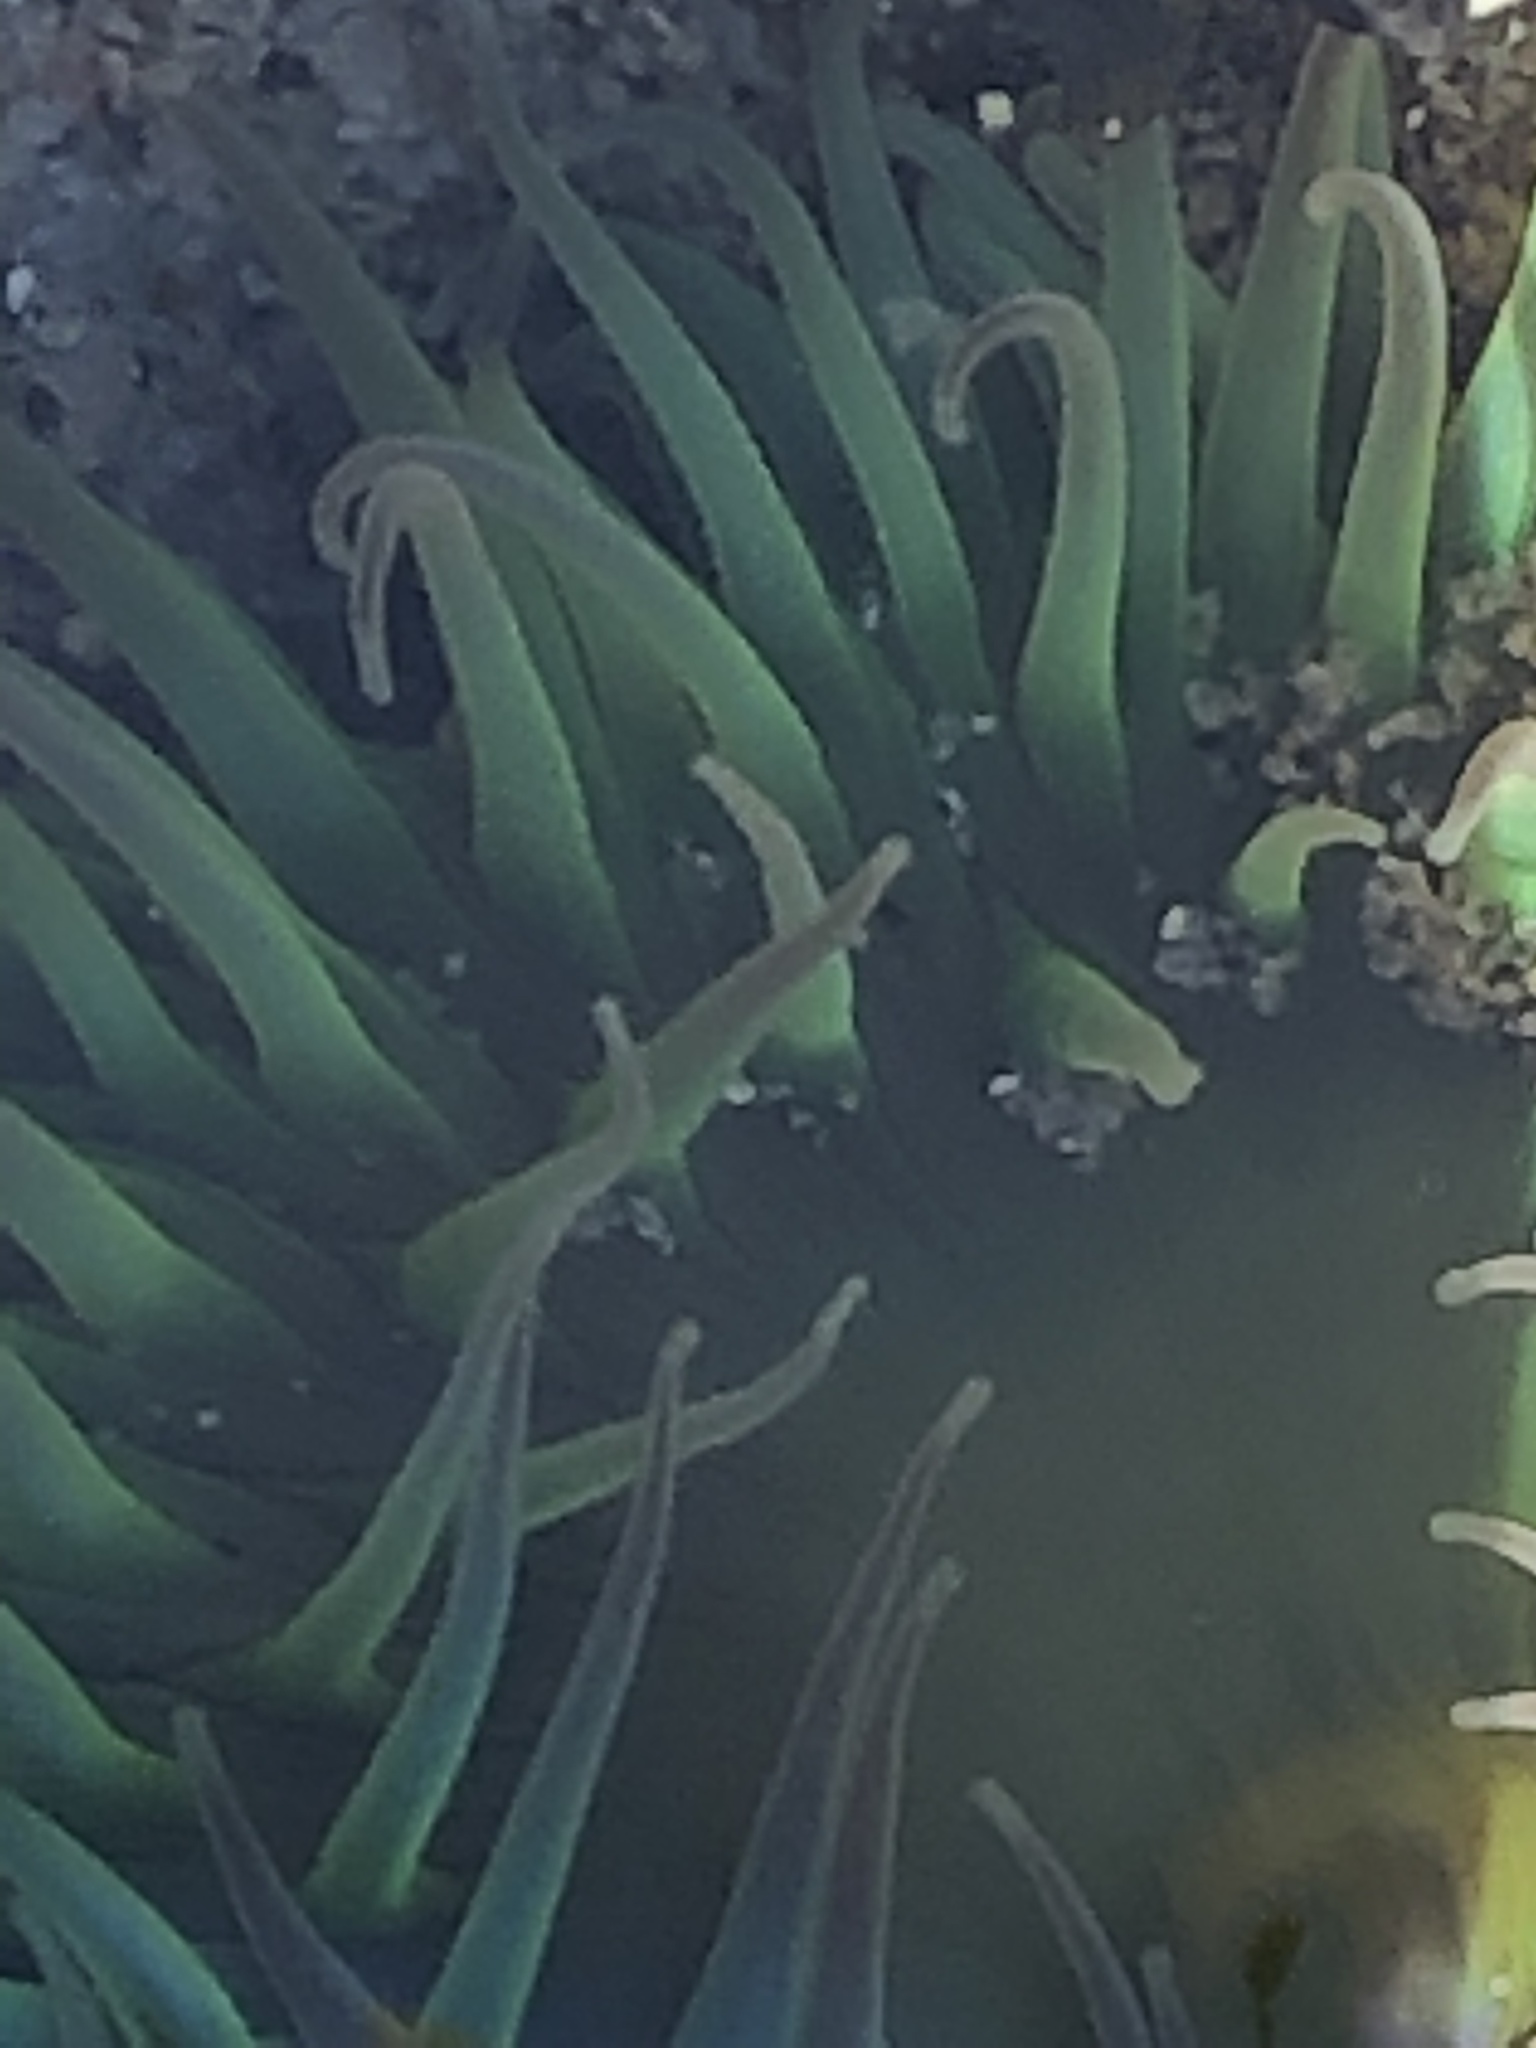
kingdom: Animalia
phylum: Cnidaria
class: Anthozoa
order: Actiniaria
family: Actiniidae
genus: Anthopleura
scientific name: Anthopleura xanthogrammica
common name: Giant green anemone
